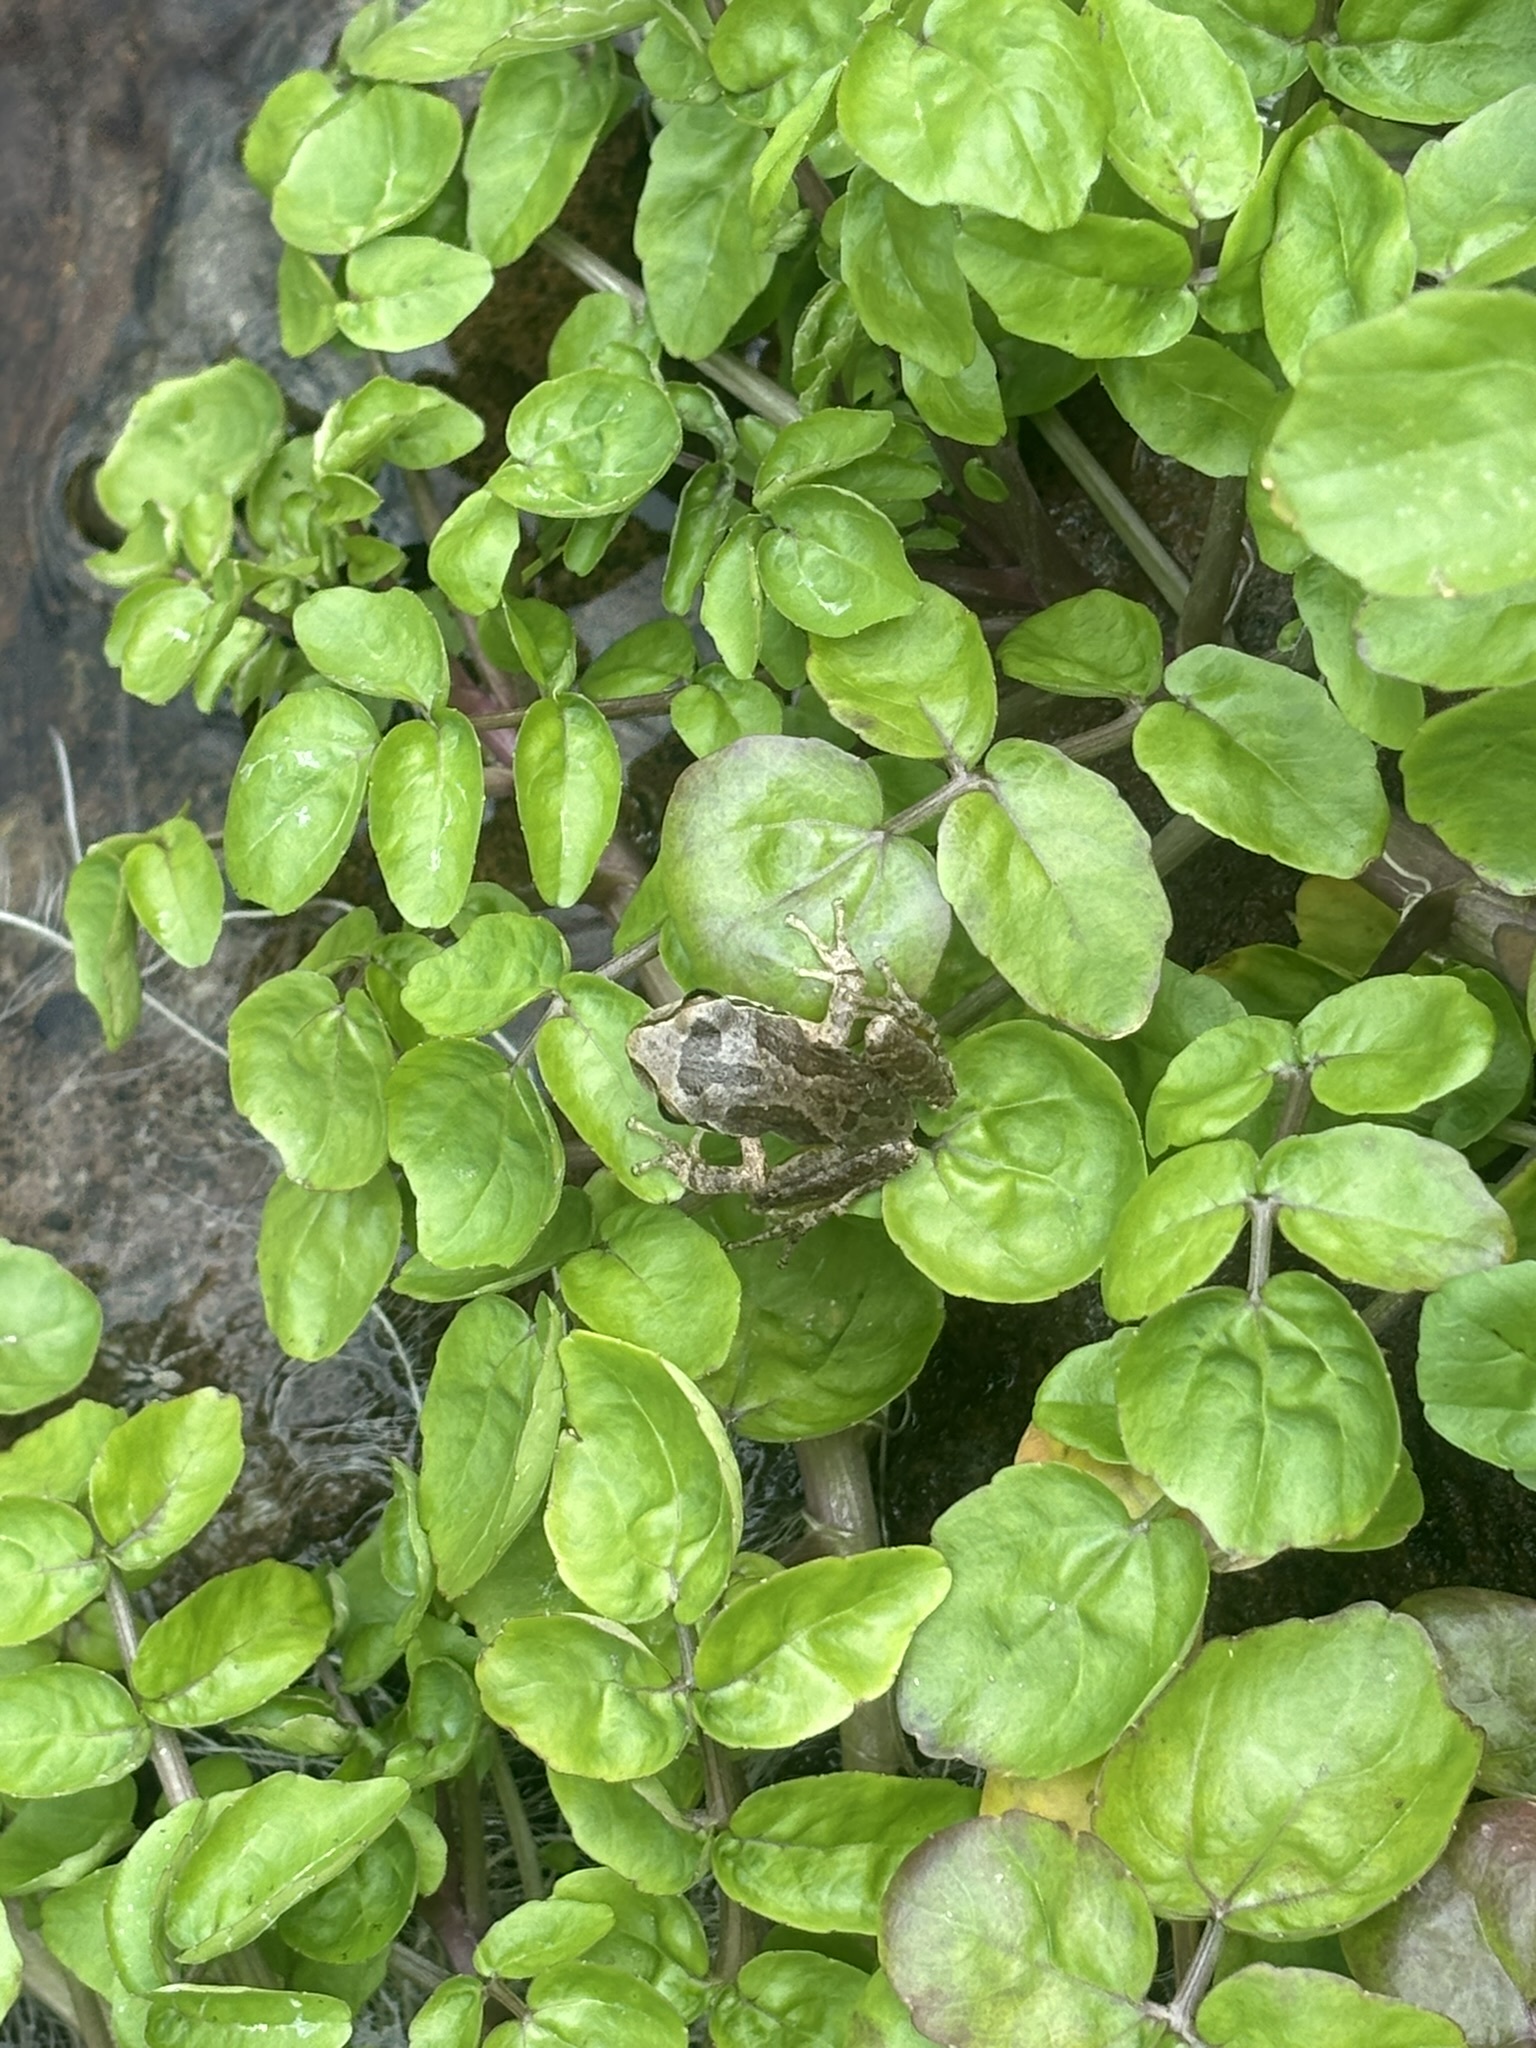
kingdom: Animalia
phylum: Chordata
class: Amphibia
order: Anura
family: Hylidae
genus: Pseudacris
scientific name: Pseudacris regilla
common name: Pacific chorus frog
